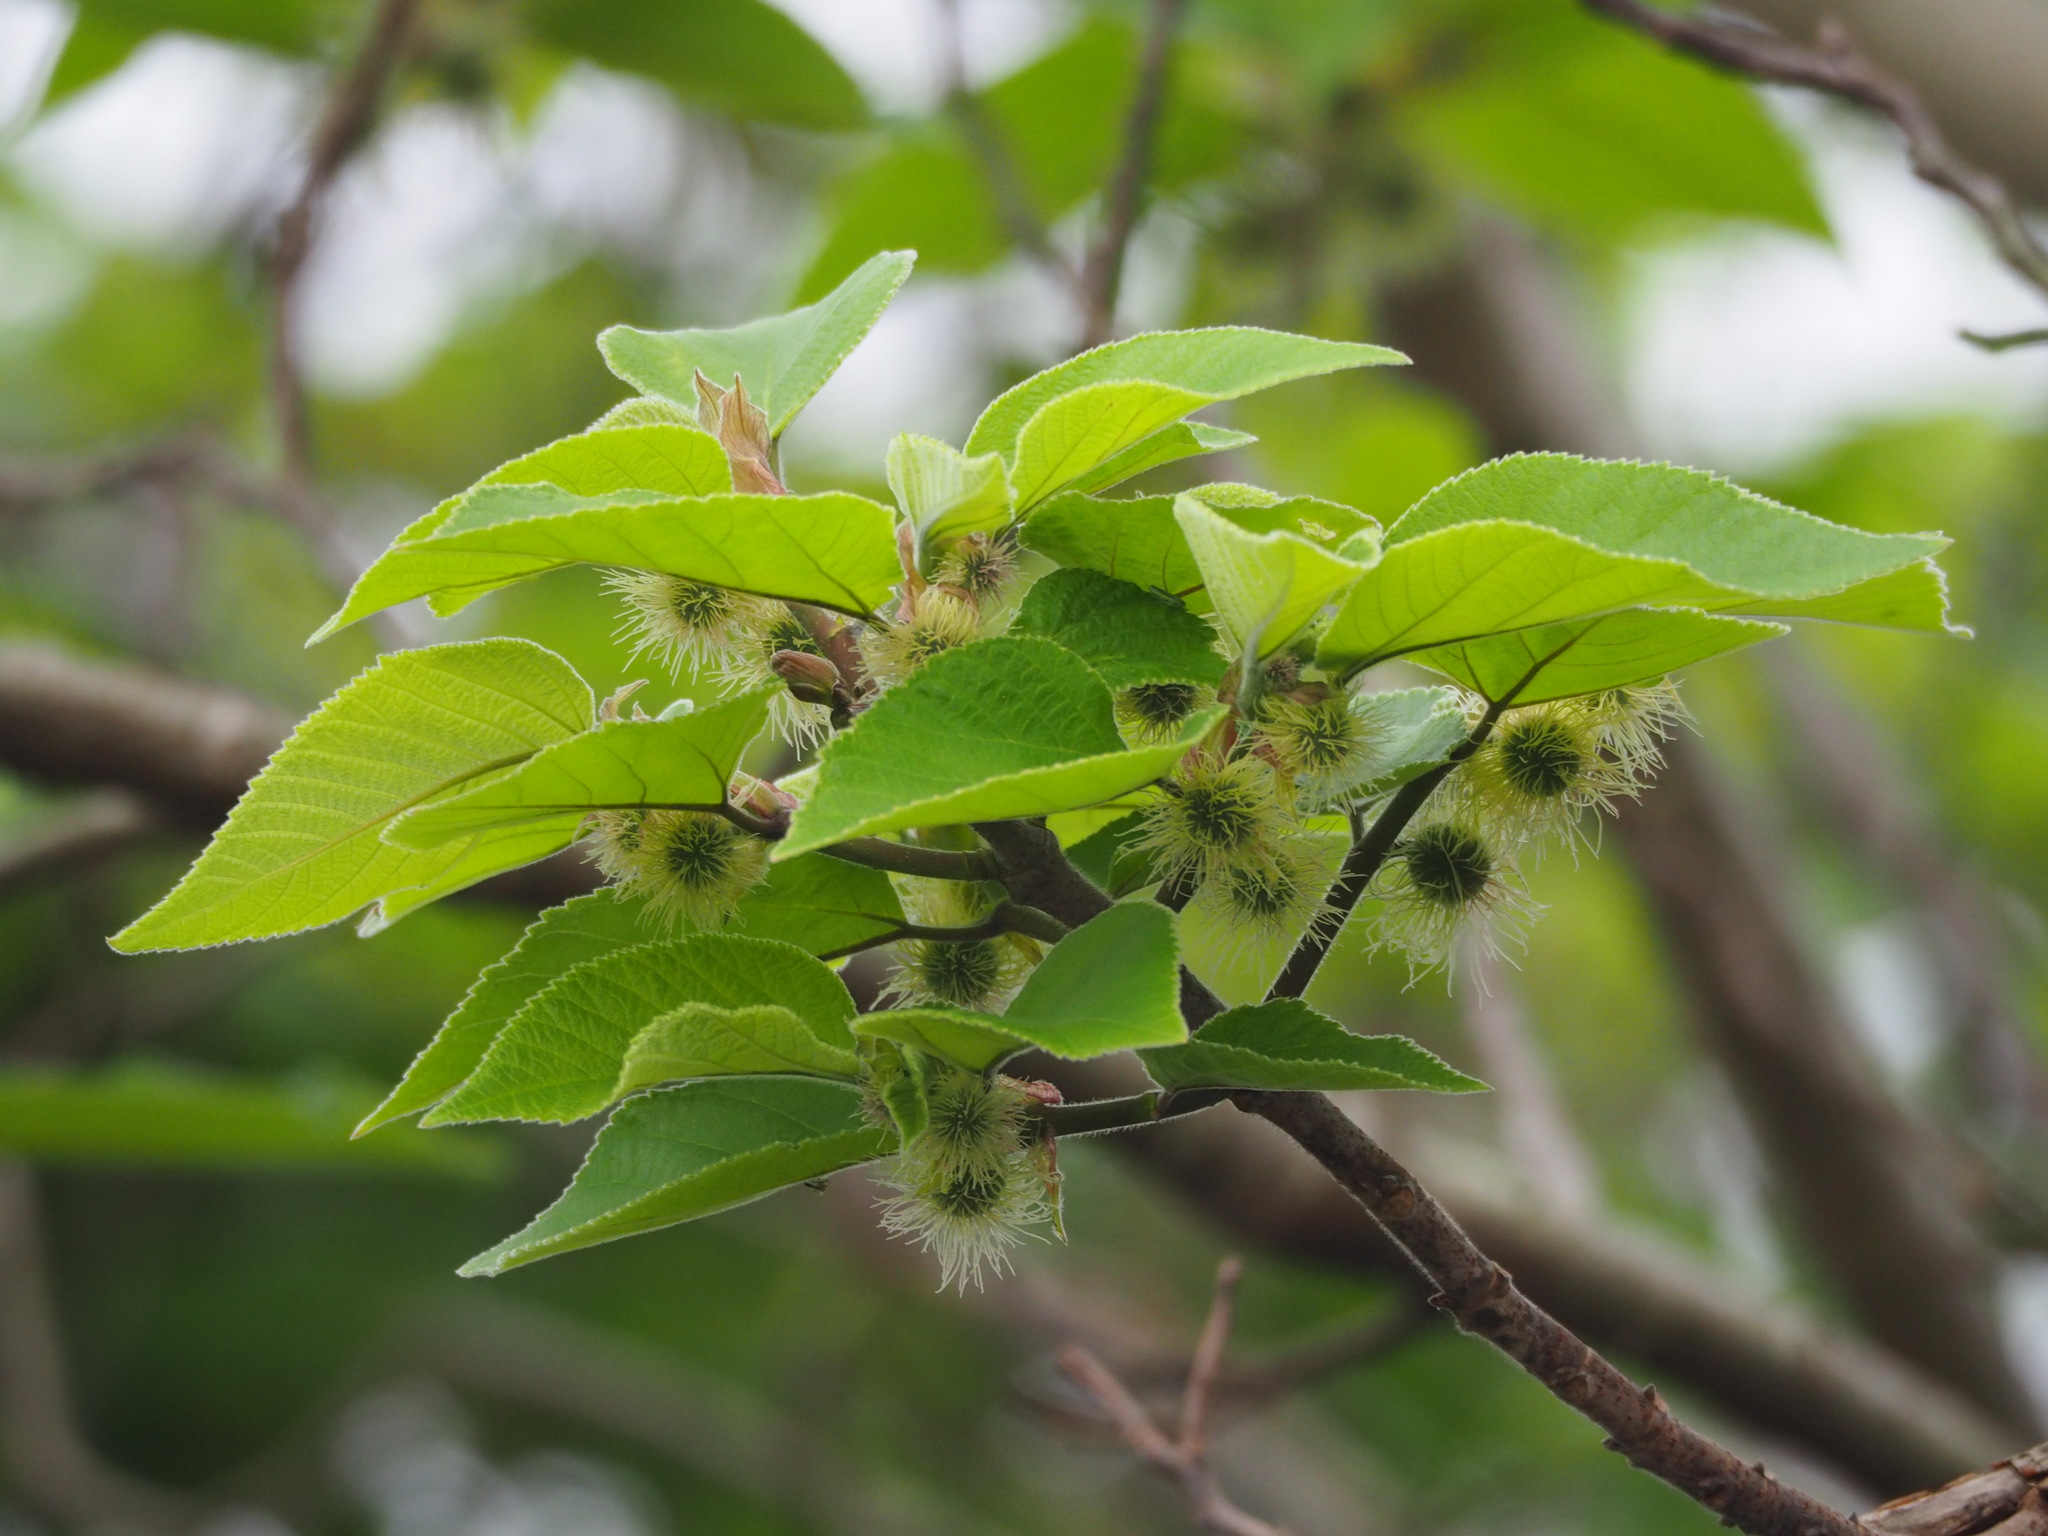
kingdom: Plantae
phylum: Tracheophyta
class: Magnoliopsida
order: Rosales
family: Moraceae
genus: Broussonetia
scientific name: Broussonetia papyrifera
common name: Paper mulberry
